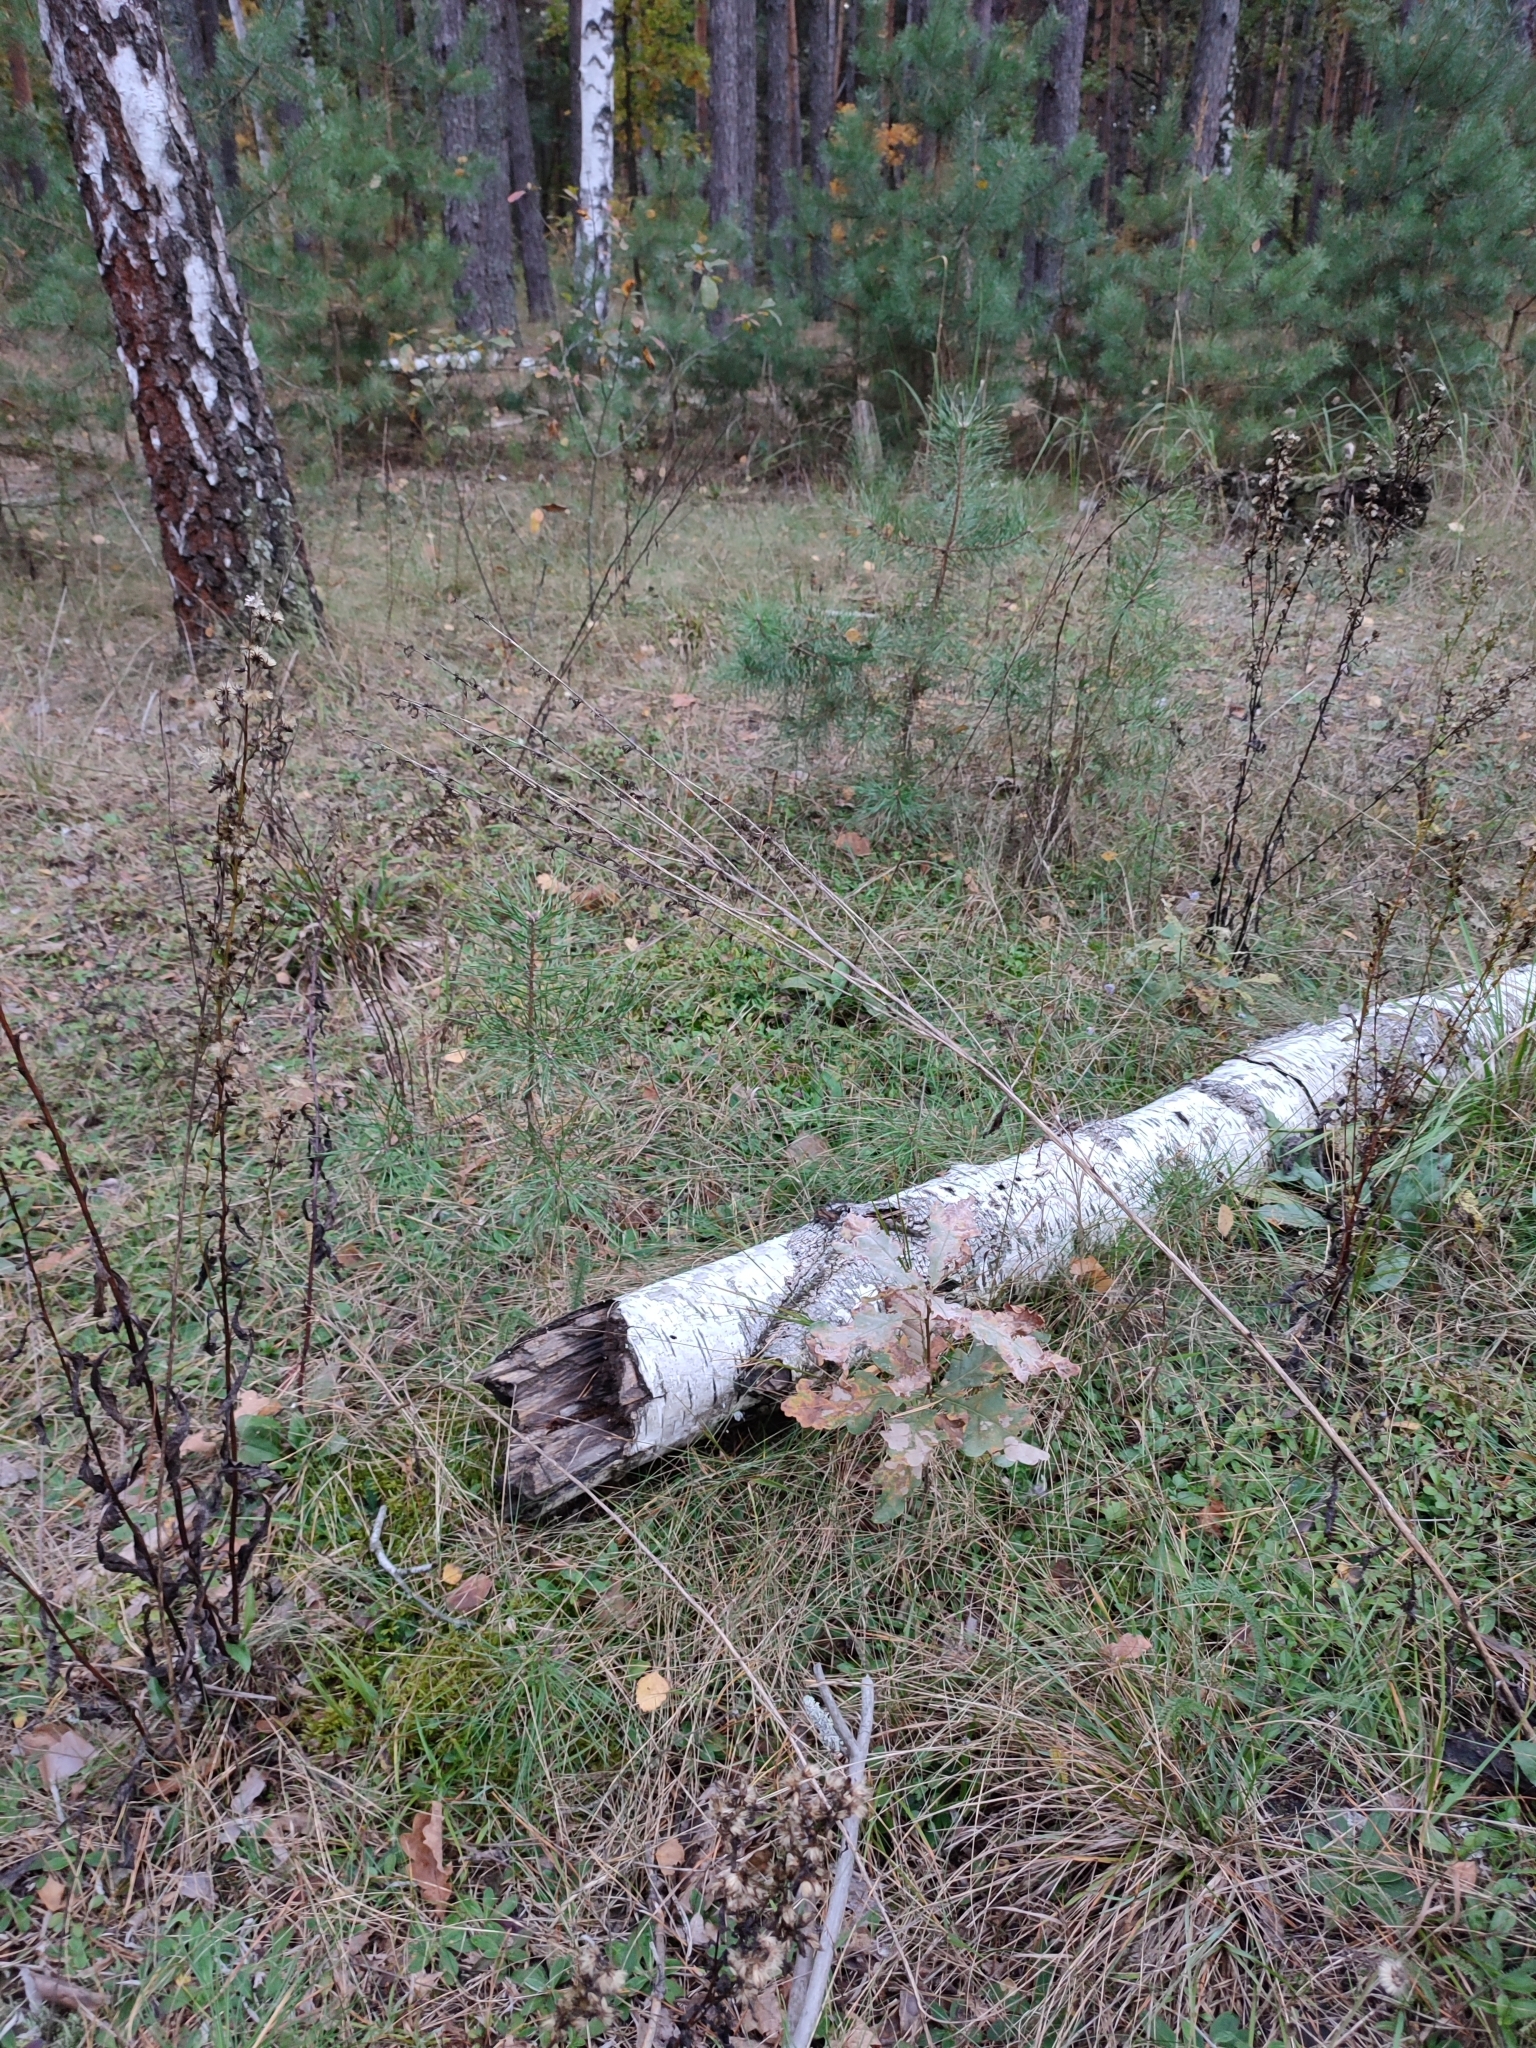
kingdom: Plantae
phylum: Tracheophyta
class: Magnoliopsida
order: Fagales
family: Fagaceae
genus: Quercus
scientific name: Quercus robur
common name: Pedunculate oak
